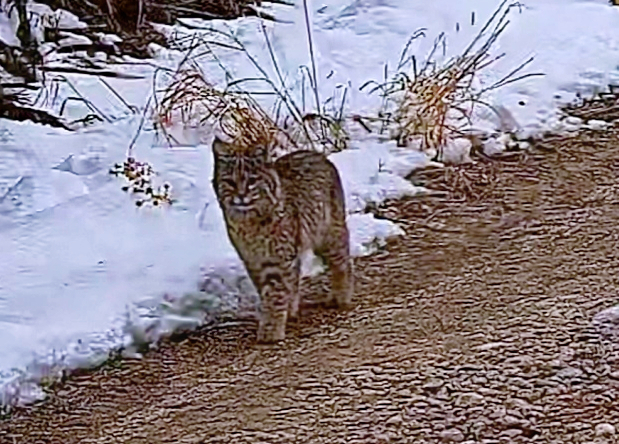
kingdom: Animalia
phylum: Chordata
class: Mammalia
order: Carnivora
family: Felidae
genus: Lynx
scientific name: Lynx rufus
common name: Bobcat
